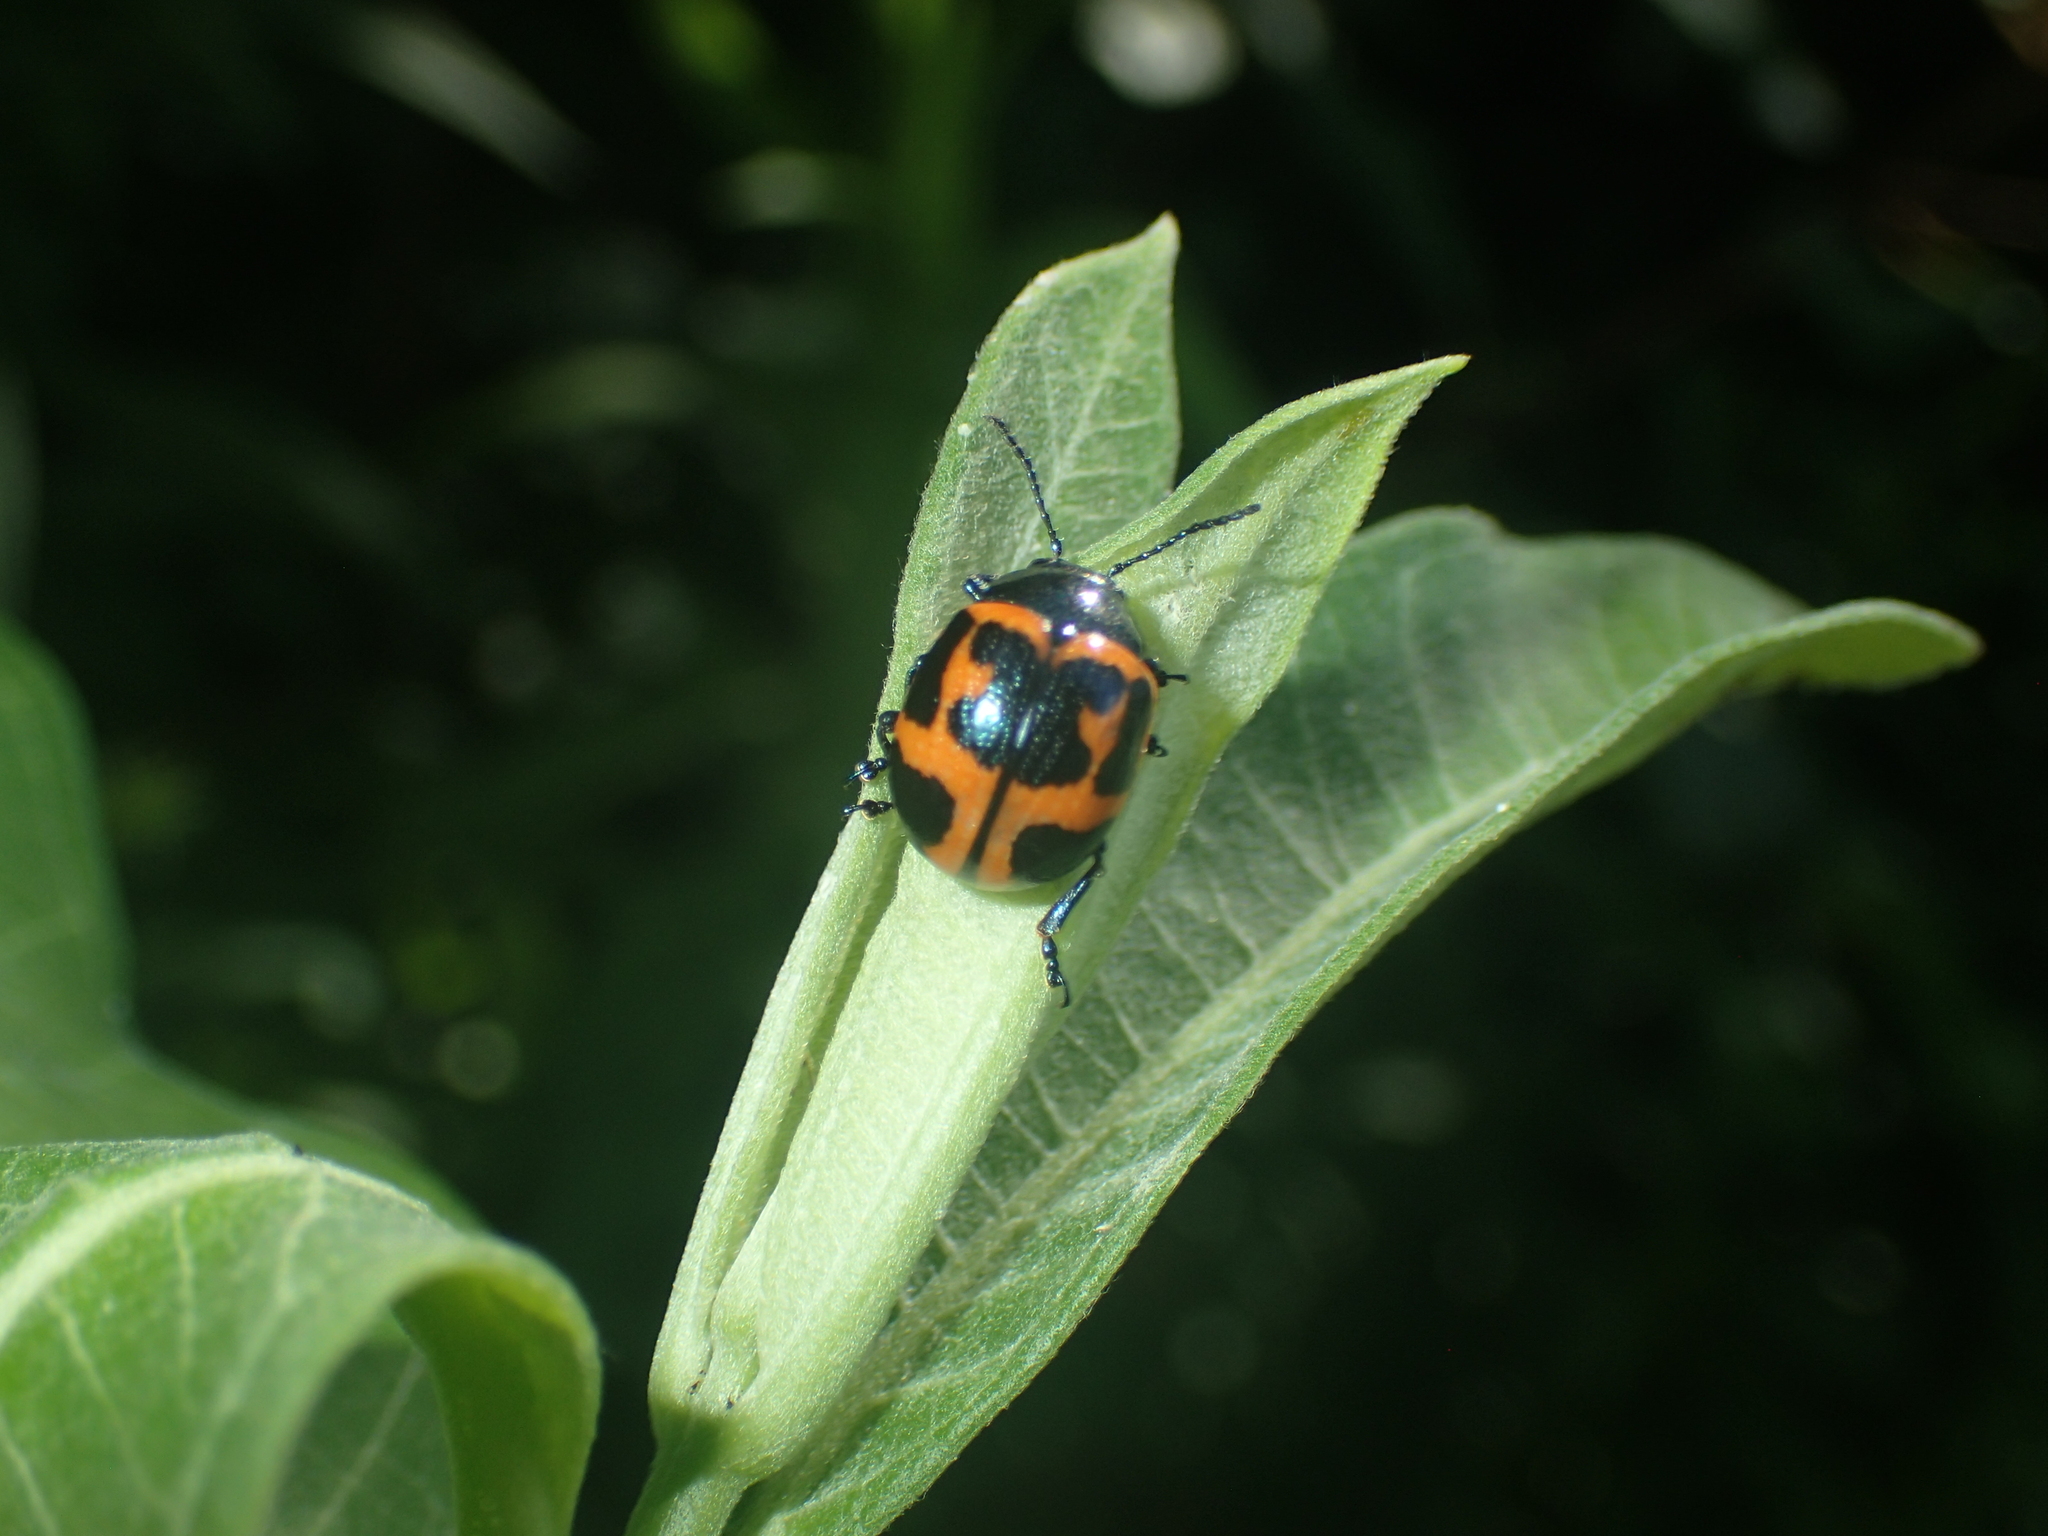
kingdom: Animalia
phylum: Arthropoda
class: Insecta
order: Coleoptera
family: Chrysomelidae
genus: Labidomera
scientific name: Labidomera clivicollis
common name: Swamp milkweed leaf beetle
